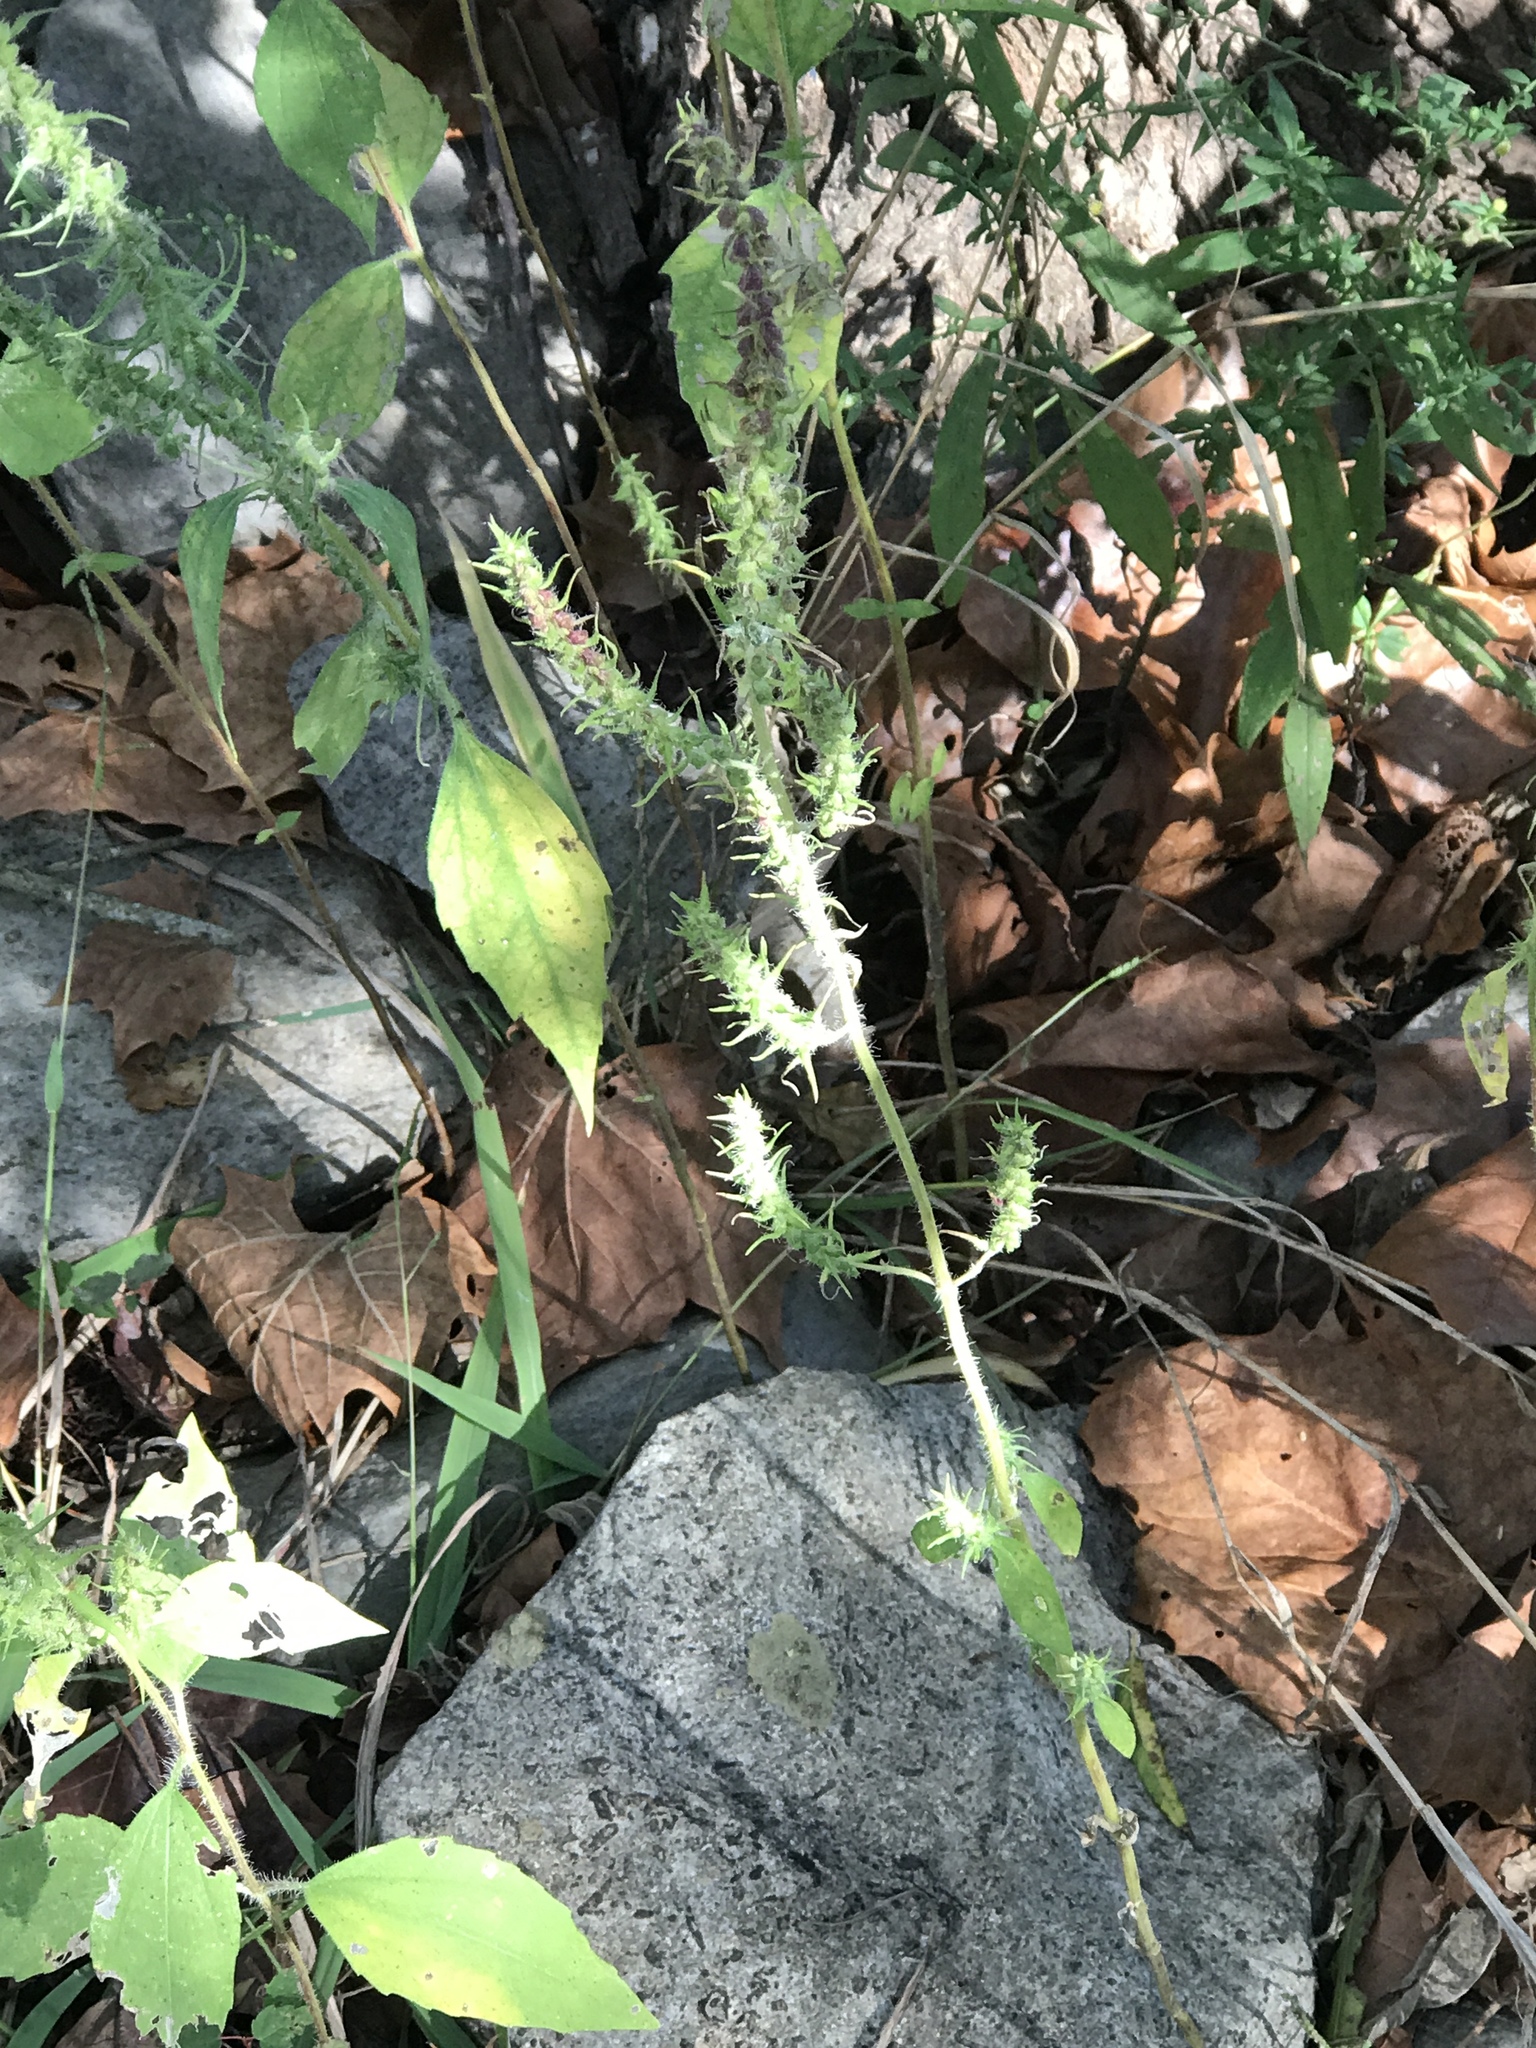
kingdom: Plantae
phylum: Tracheophyta
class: Magnoliopsida
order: Asterales
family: Asteraceae
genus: Iva
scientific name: Iva annua
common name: Marsh-elder
